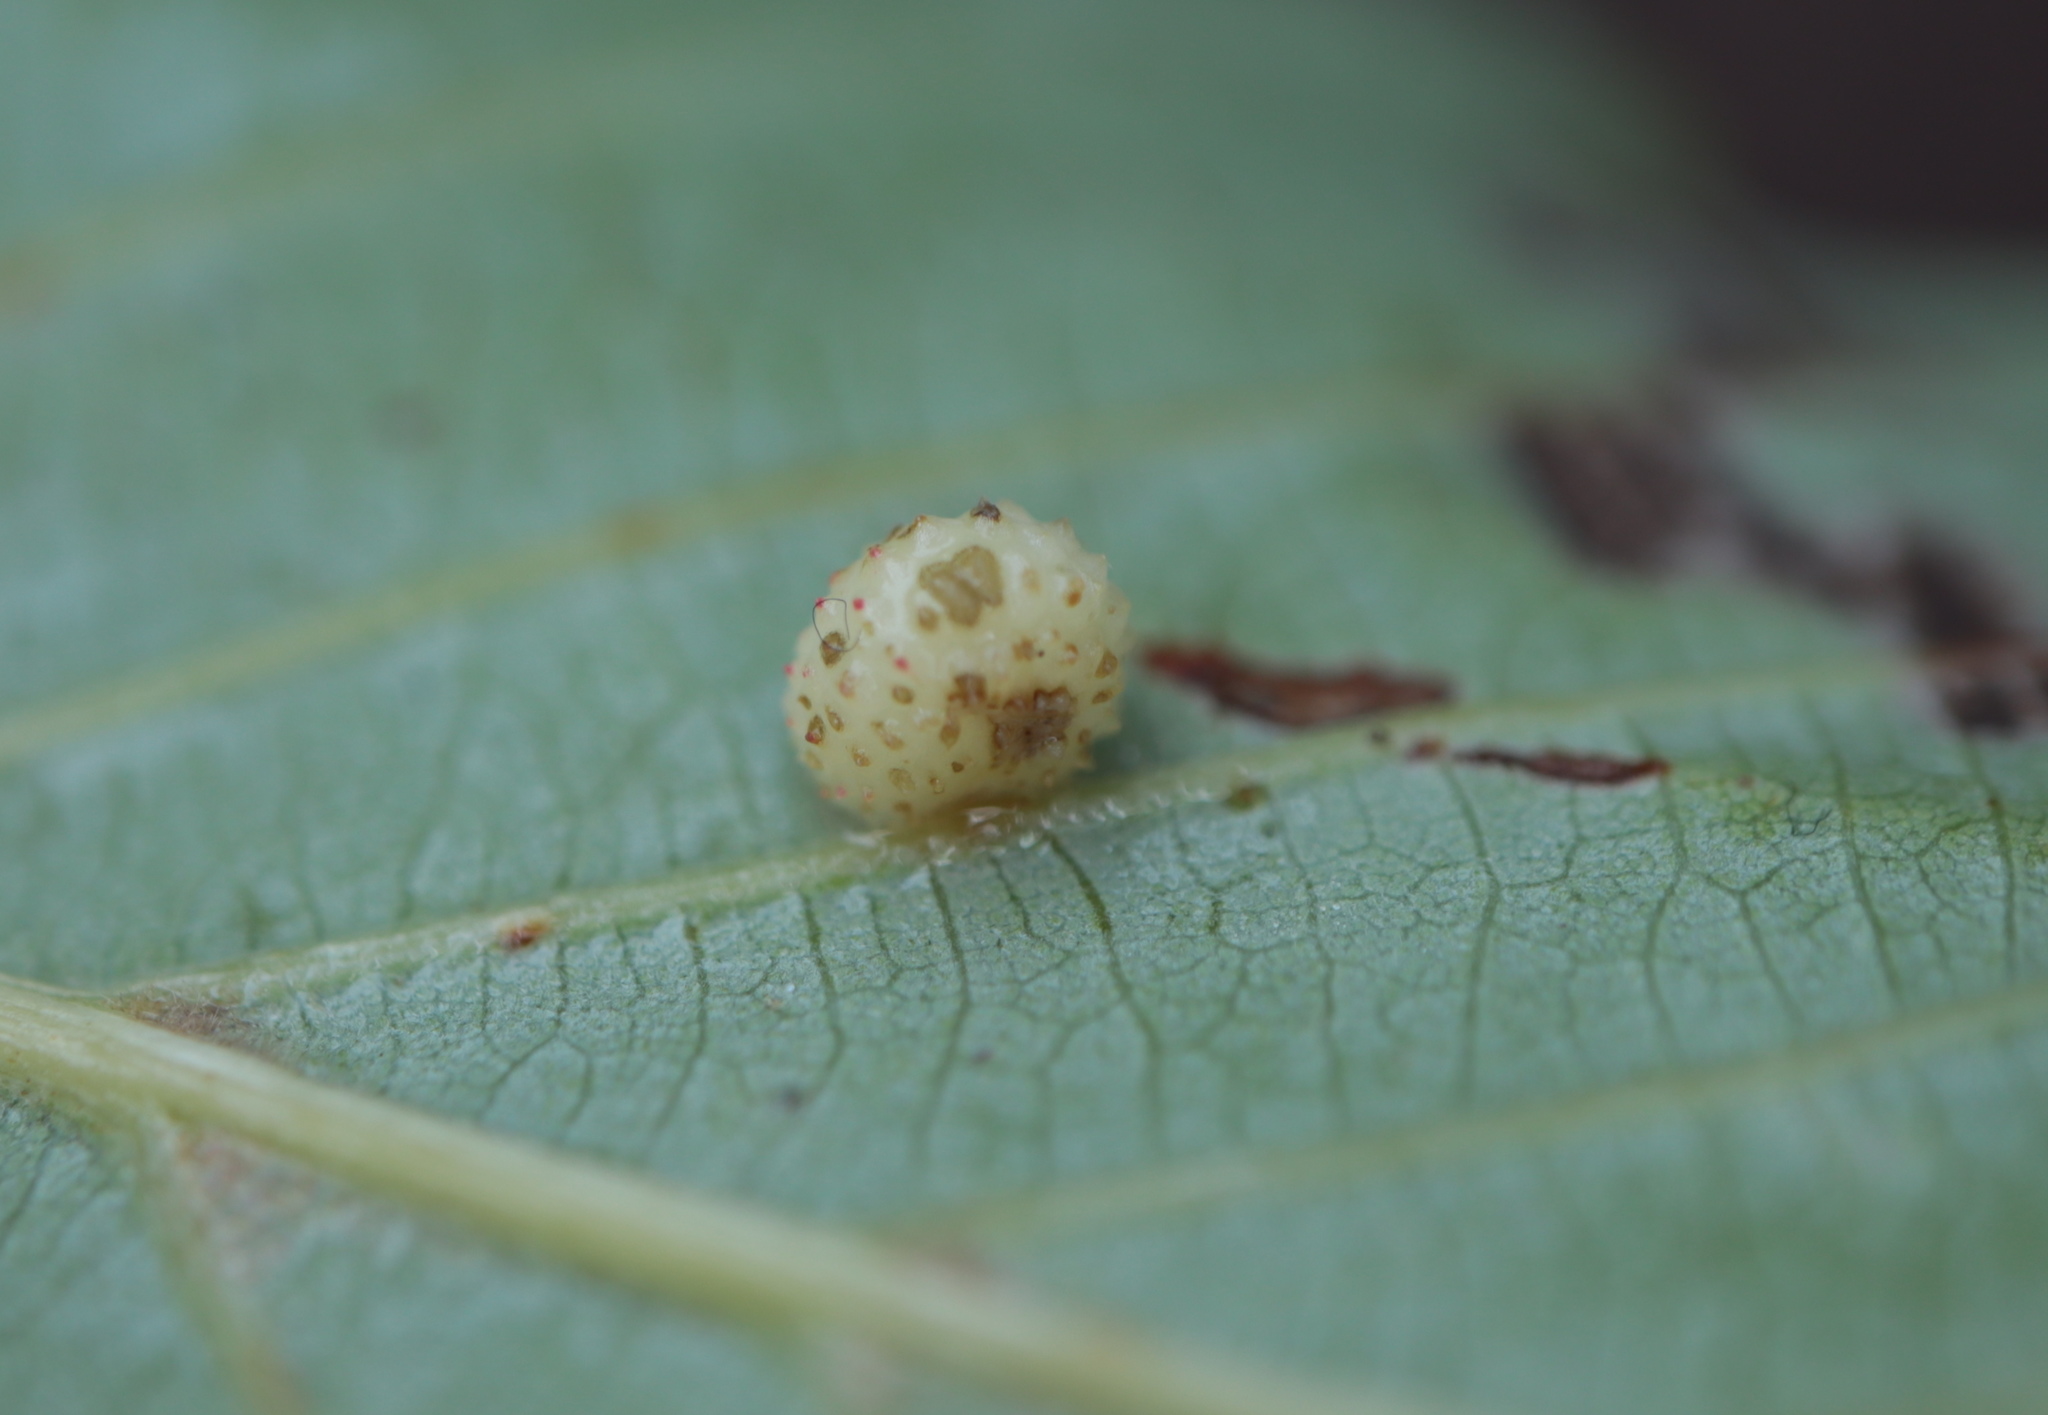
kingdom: Animalia
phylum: Arthropoda
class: Insecta
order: Hymenoptera
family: Cynipidae
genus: Acraspis
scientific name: Acraspis quercushirta
